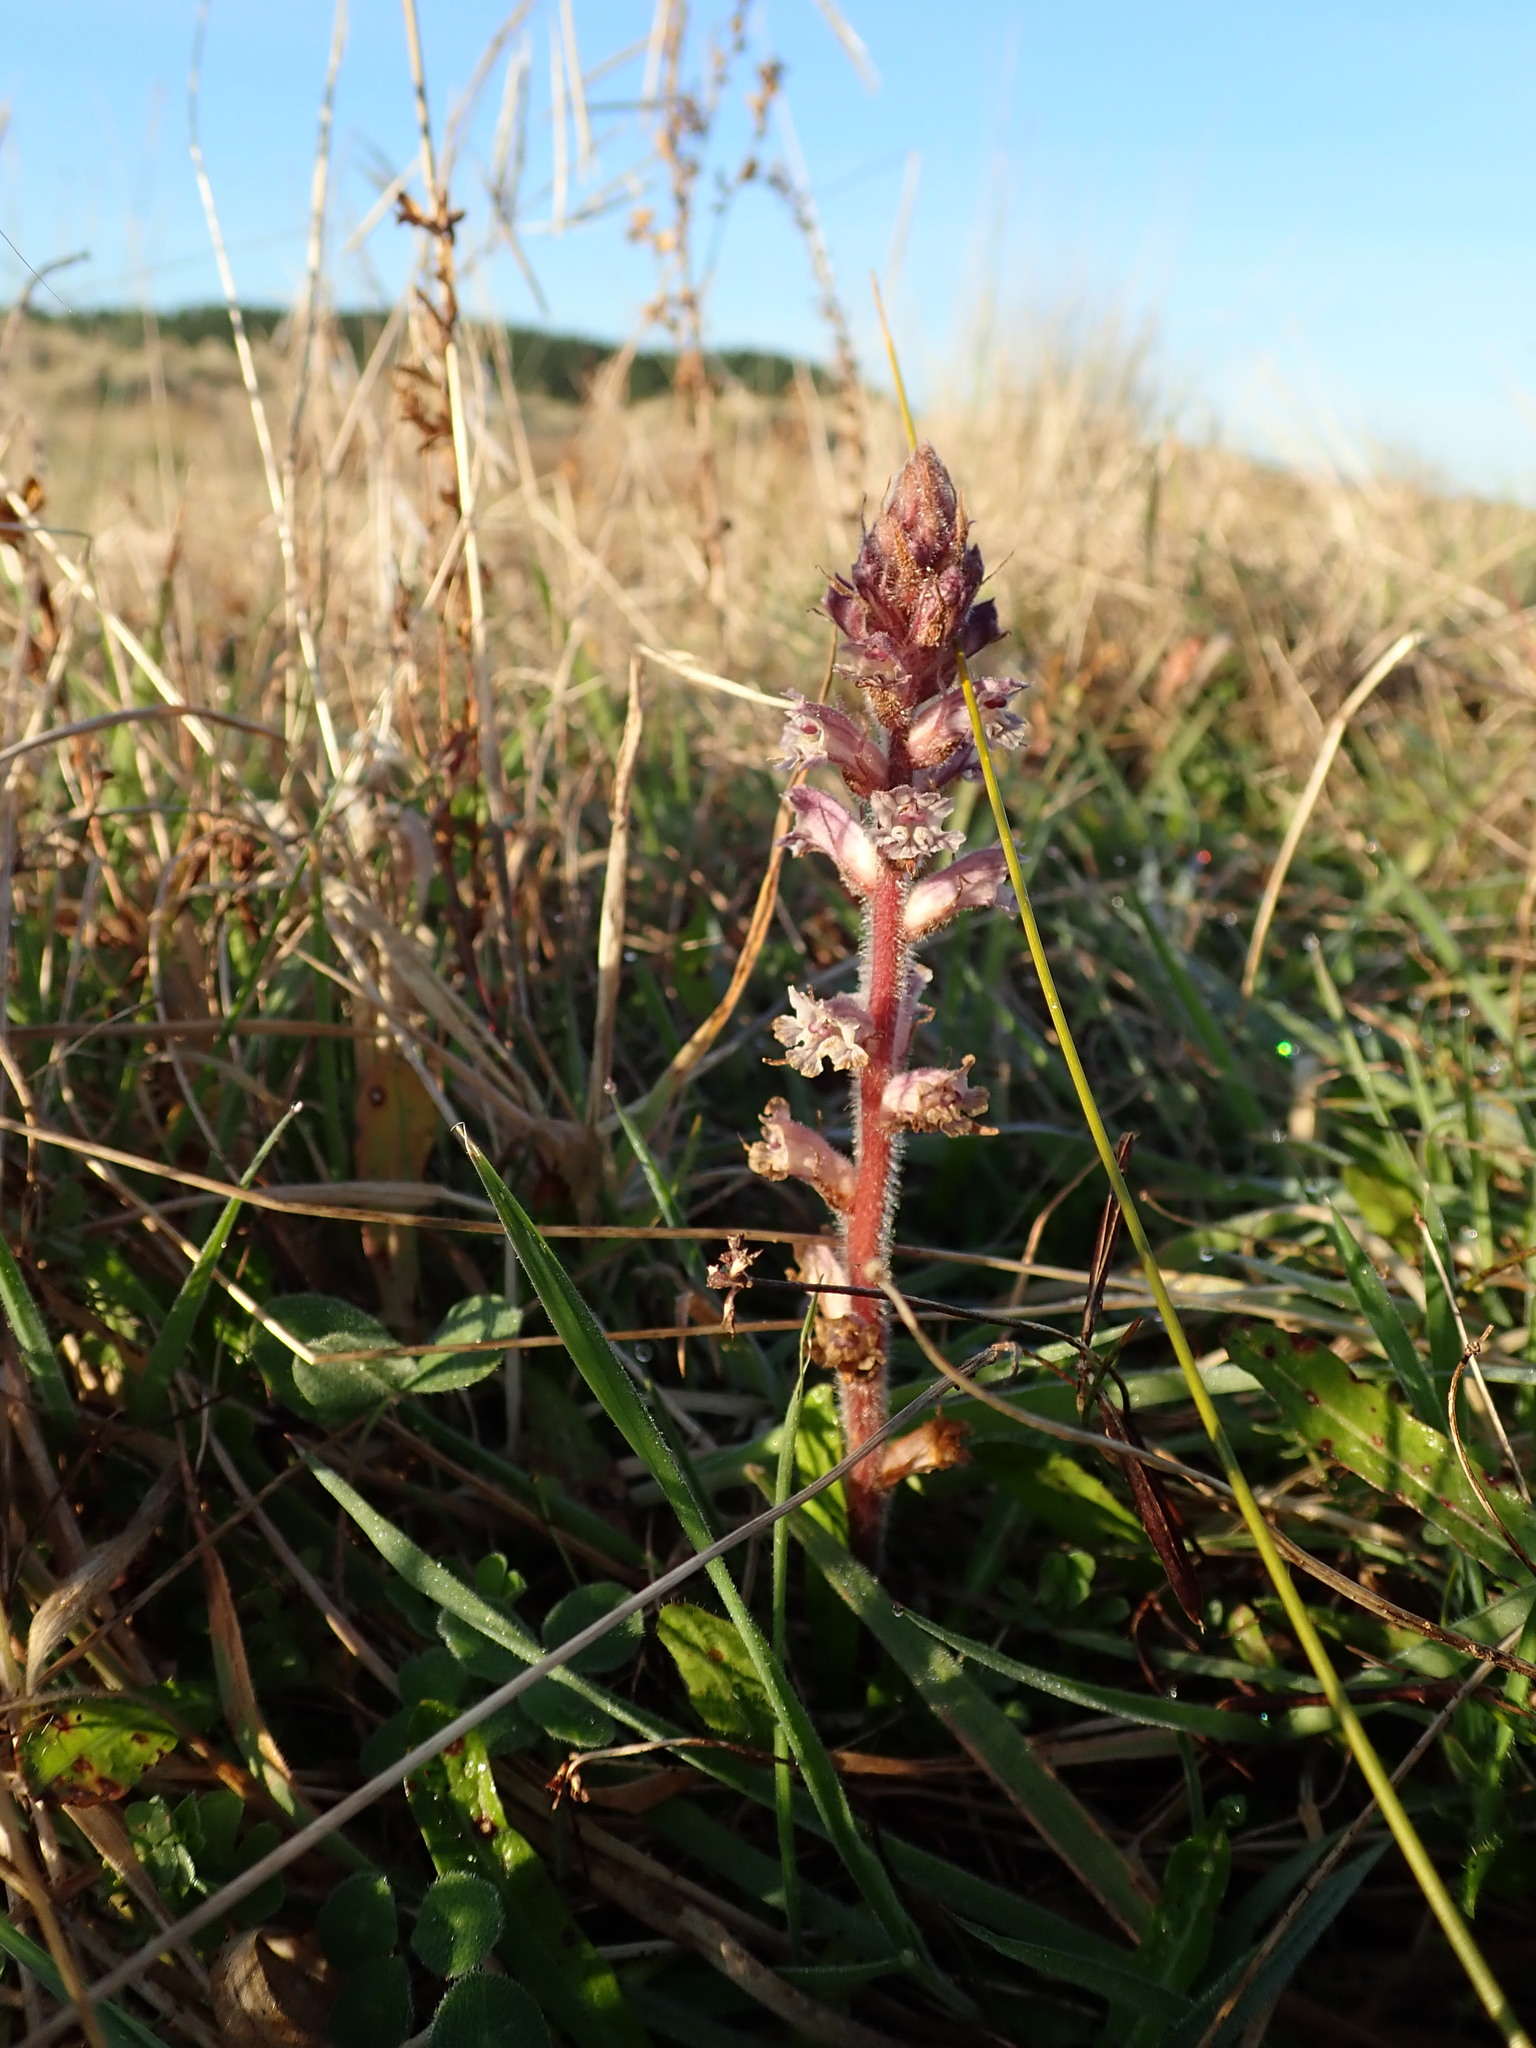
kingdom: Plantae
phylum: Tracheophyta
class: Magnoliopsida
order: Lamiales
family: Orobanchaceae
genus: Orobanche
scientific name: Orobanche minor
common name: Common broomrape
